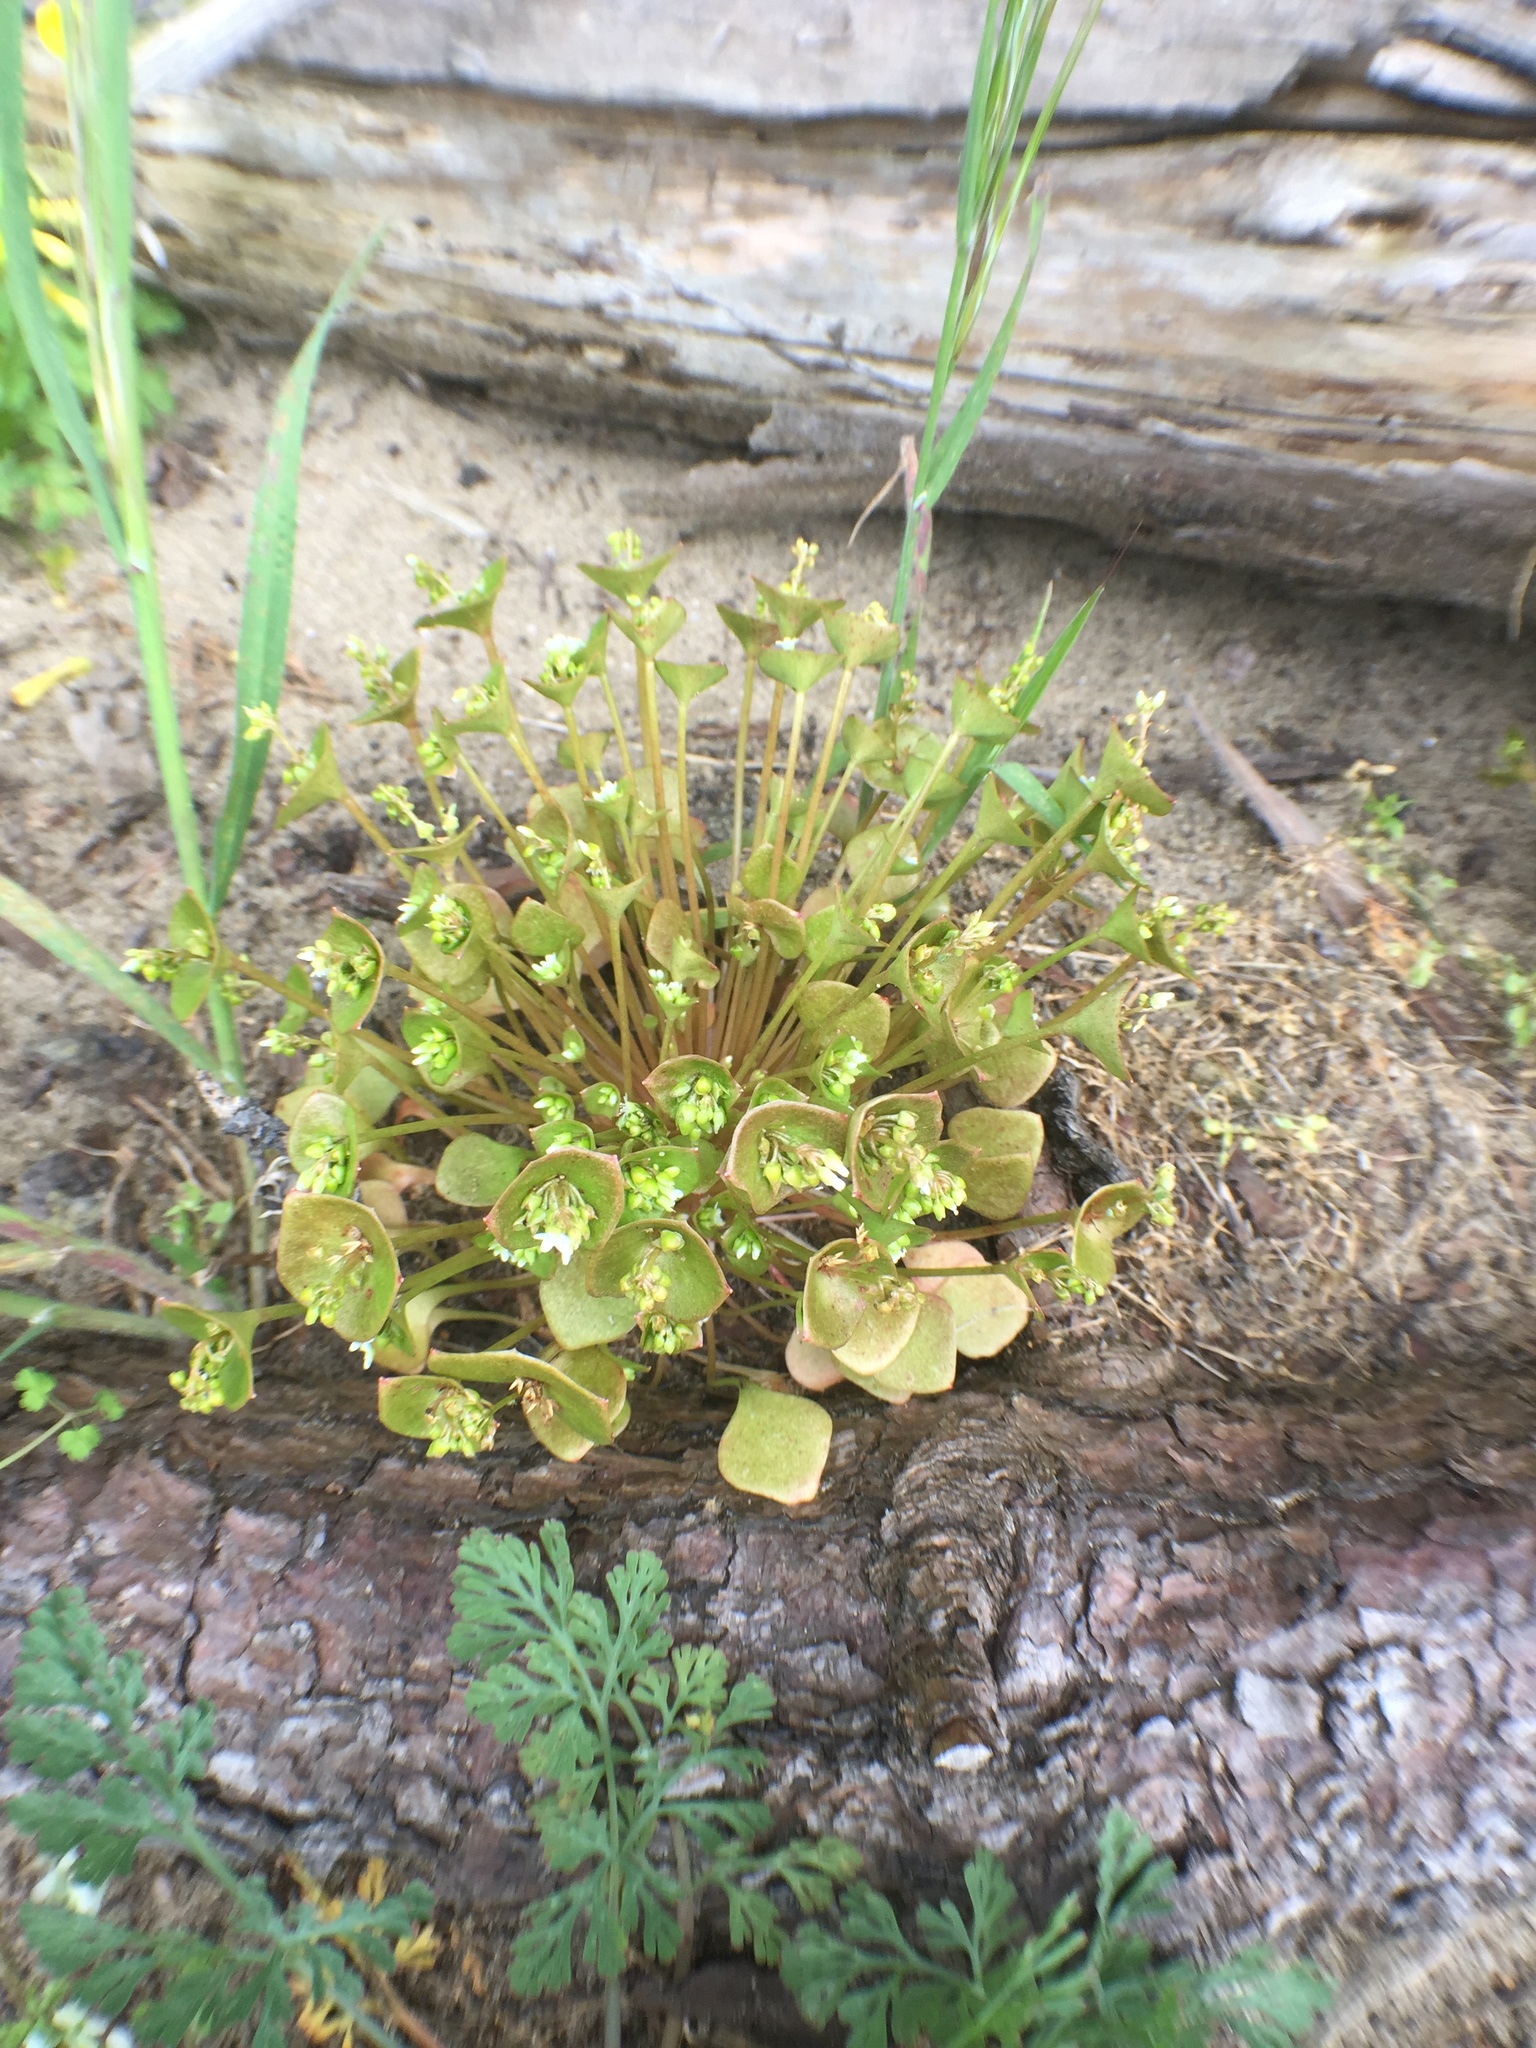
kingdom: Plantae
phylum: Tracheophyta
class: Magnoliopsida
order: Caryophyllales
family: Montiaceae
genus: Claytonia
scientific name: Claytonia perfoliata
